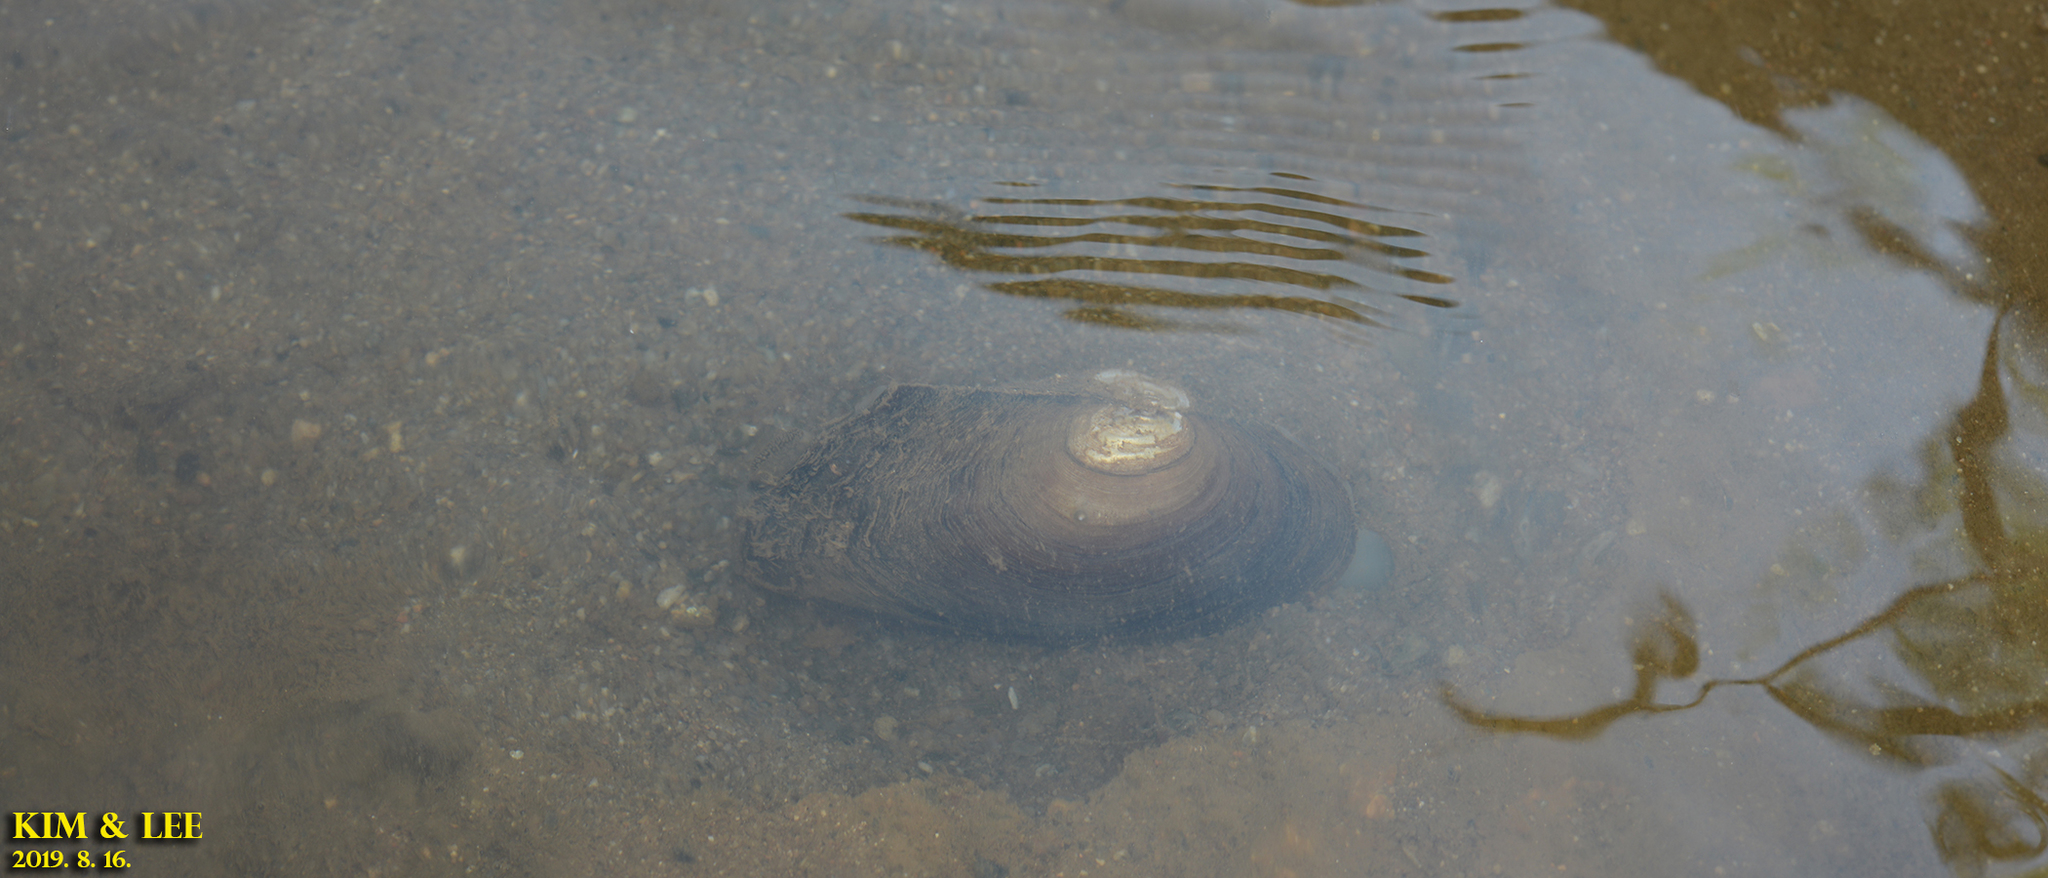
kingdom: Animalia
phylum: Mollusca
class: Bivalvia
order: Unionida
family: Unionidae
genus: Sinanodonta
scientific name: Sinanodonta lauta
